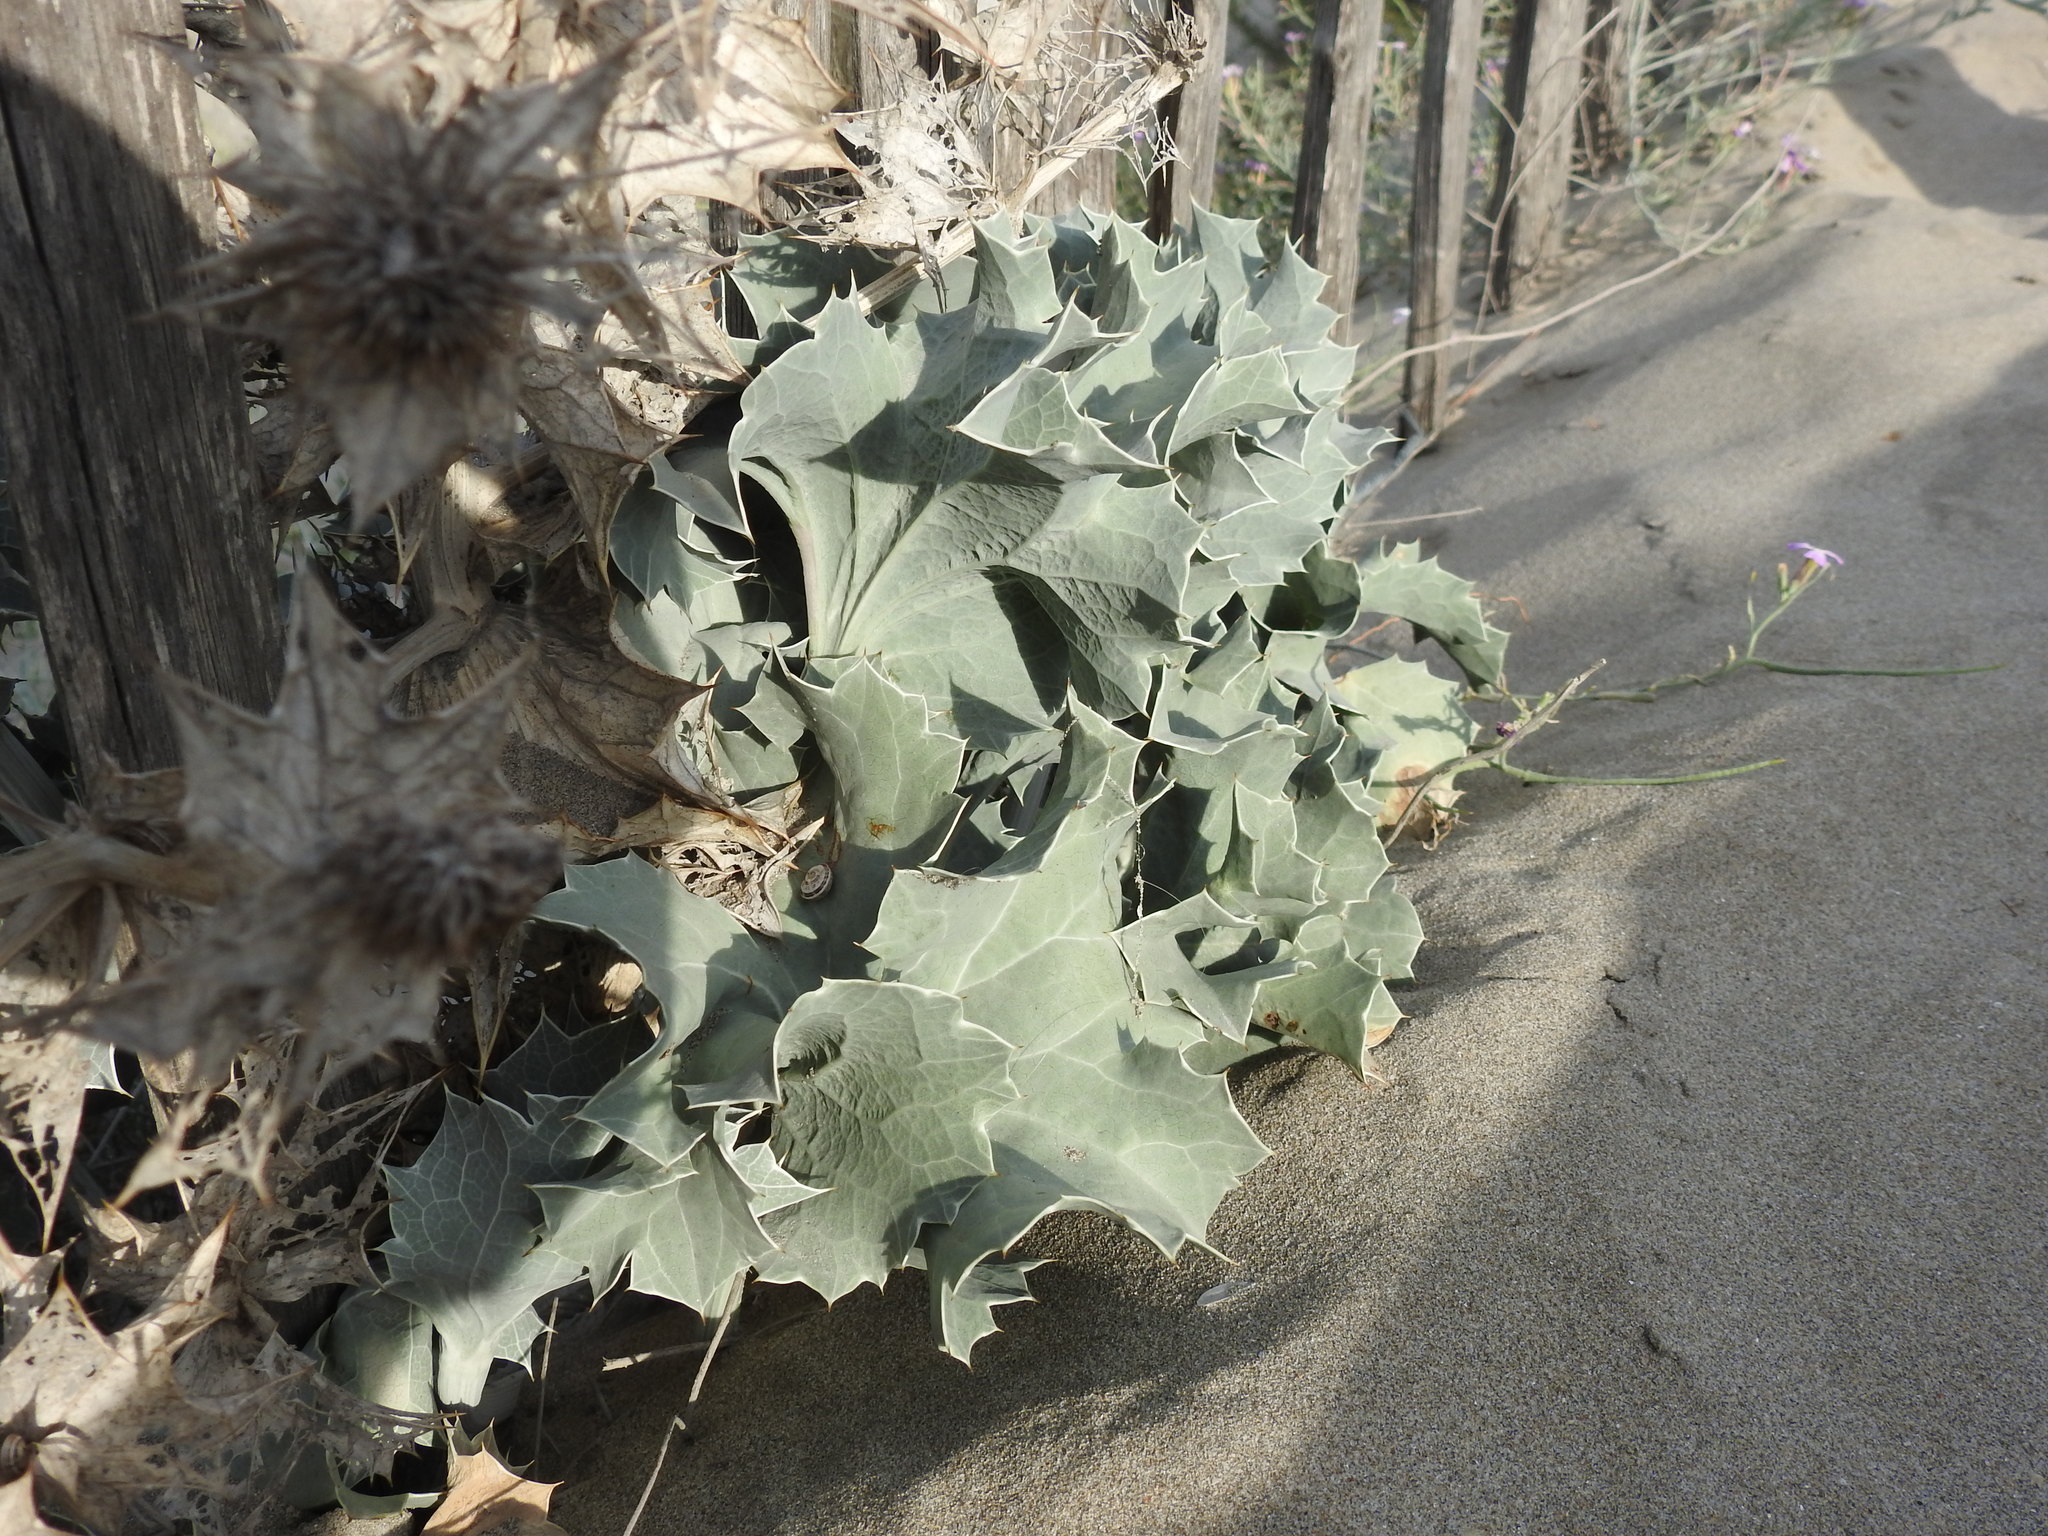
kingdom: Plantae
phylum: Tracheophyta
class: Magnoliopsida
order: Apiales
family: Apiaceae
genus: Eryngium
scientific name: Eryngium maritimum
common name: Sea-holly
